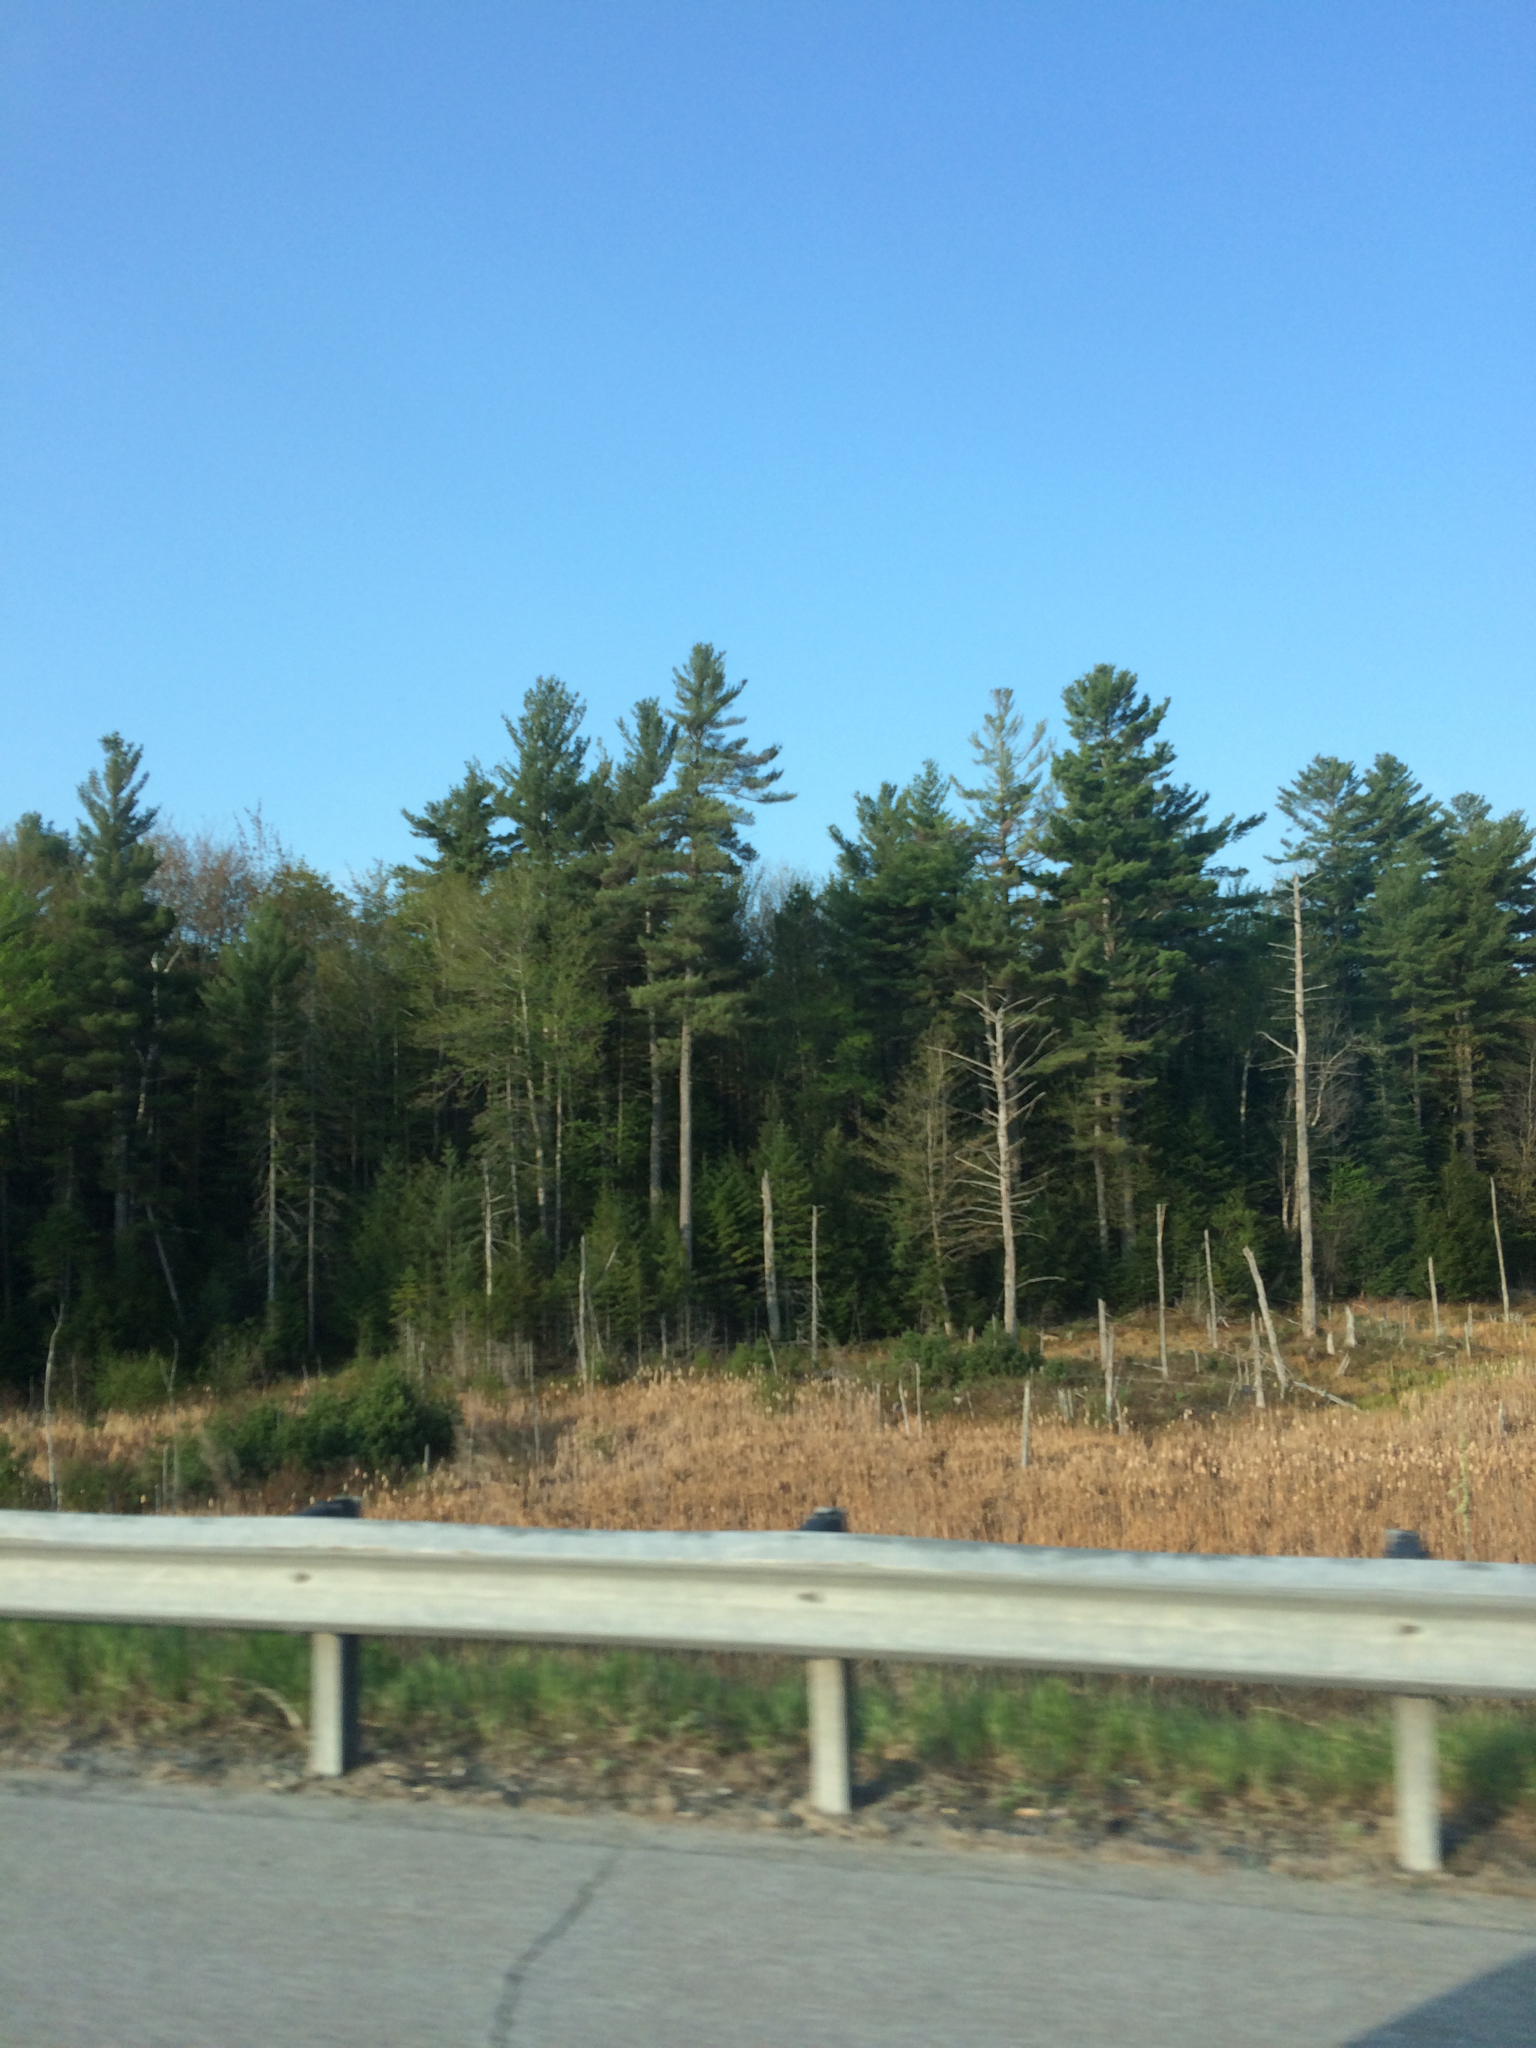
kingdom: Plantae
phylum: Tracheophyta
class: Pinopsida
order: Pinales
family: Pinaceae
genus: Pinus
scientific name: Pinus strobus
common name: Weymouth pine
